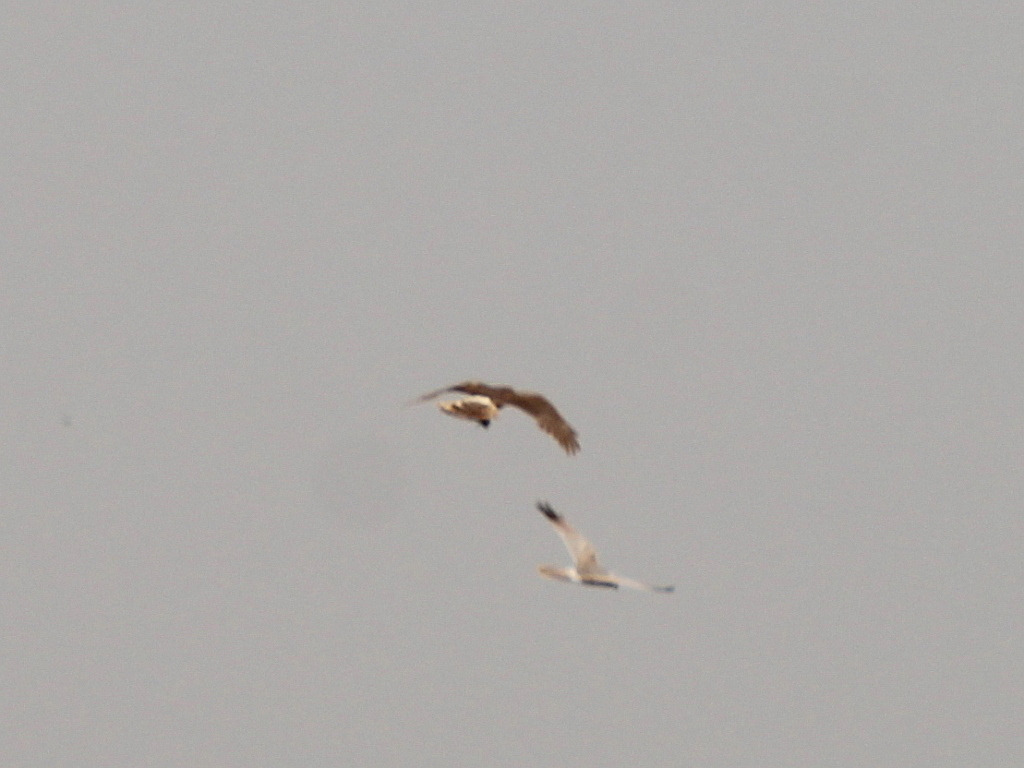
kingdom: Animalia
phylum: Chordata
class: Aves
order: Accipitriformes
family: Accipitridae
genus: Circus
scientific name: Circus macrourus
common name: Pallid harrier
